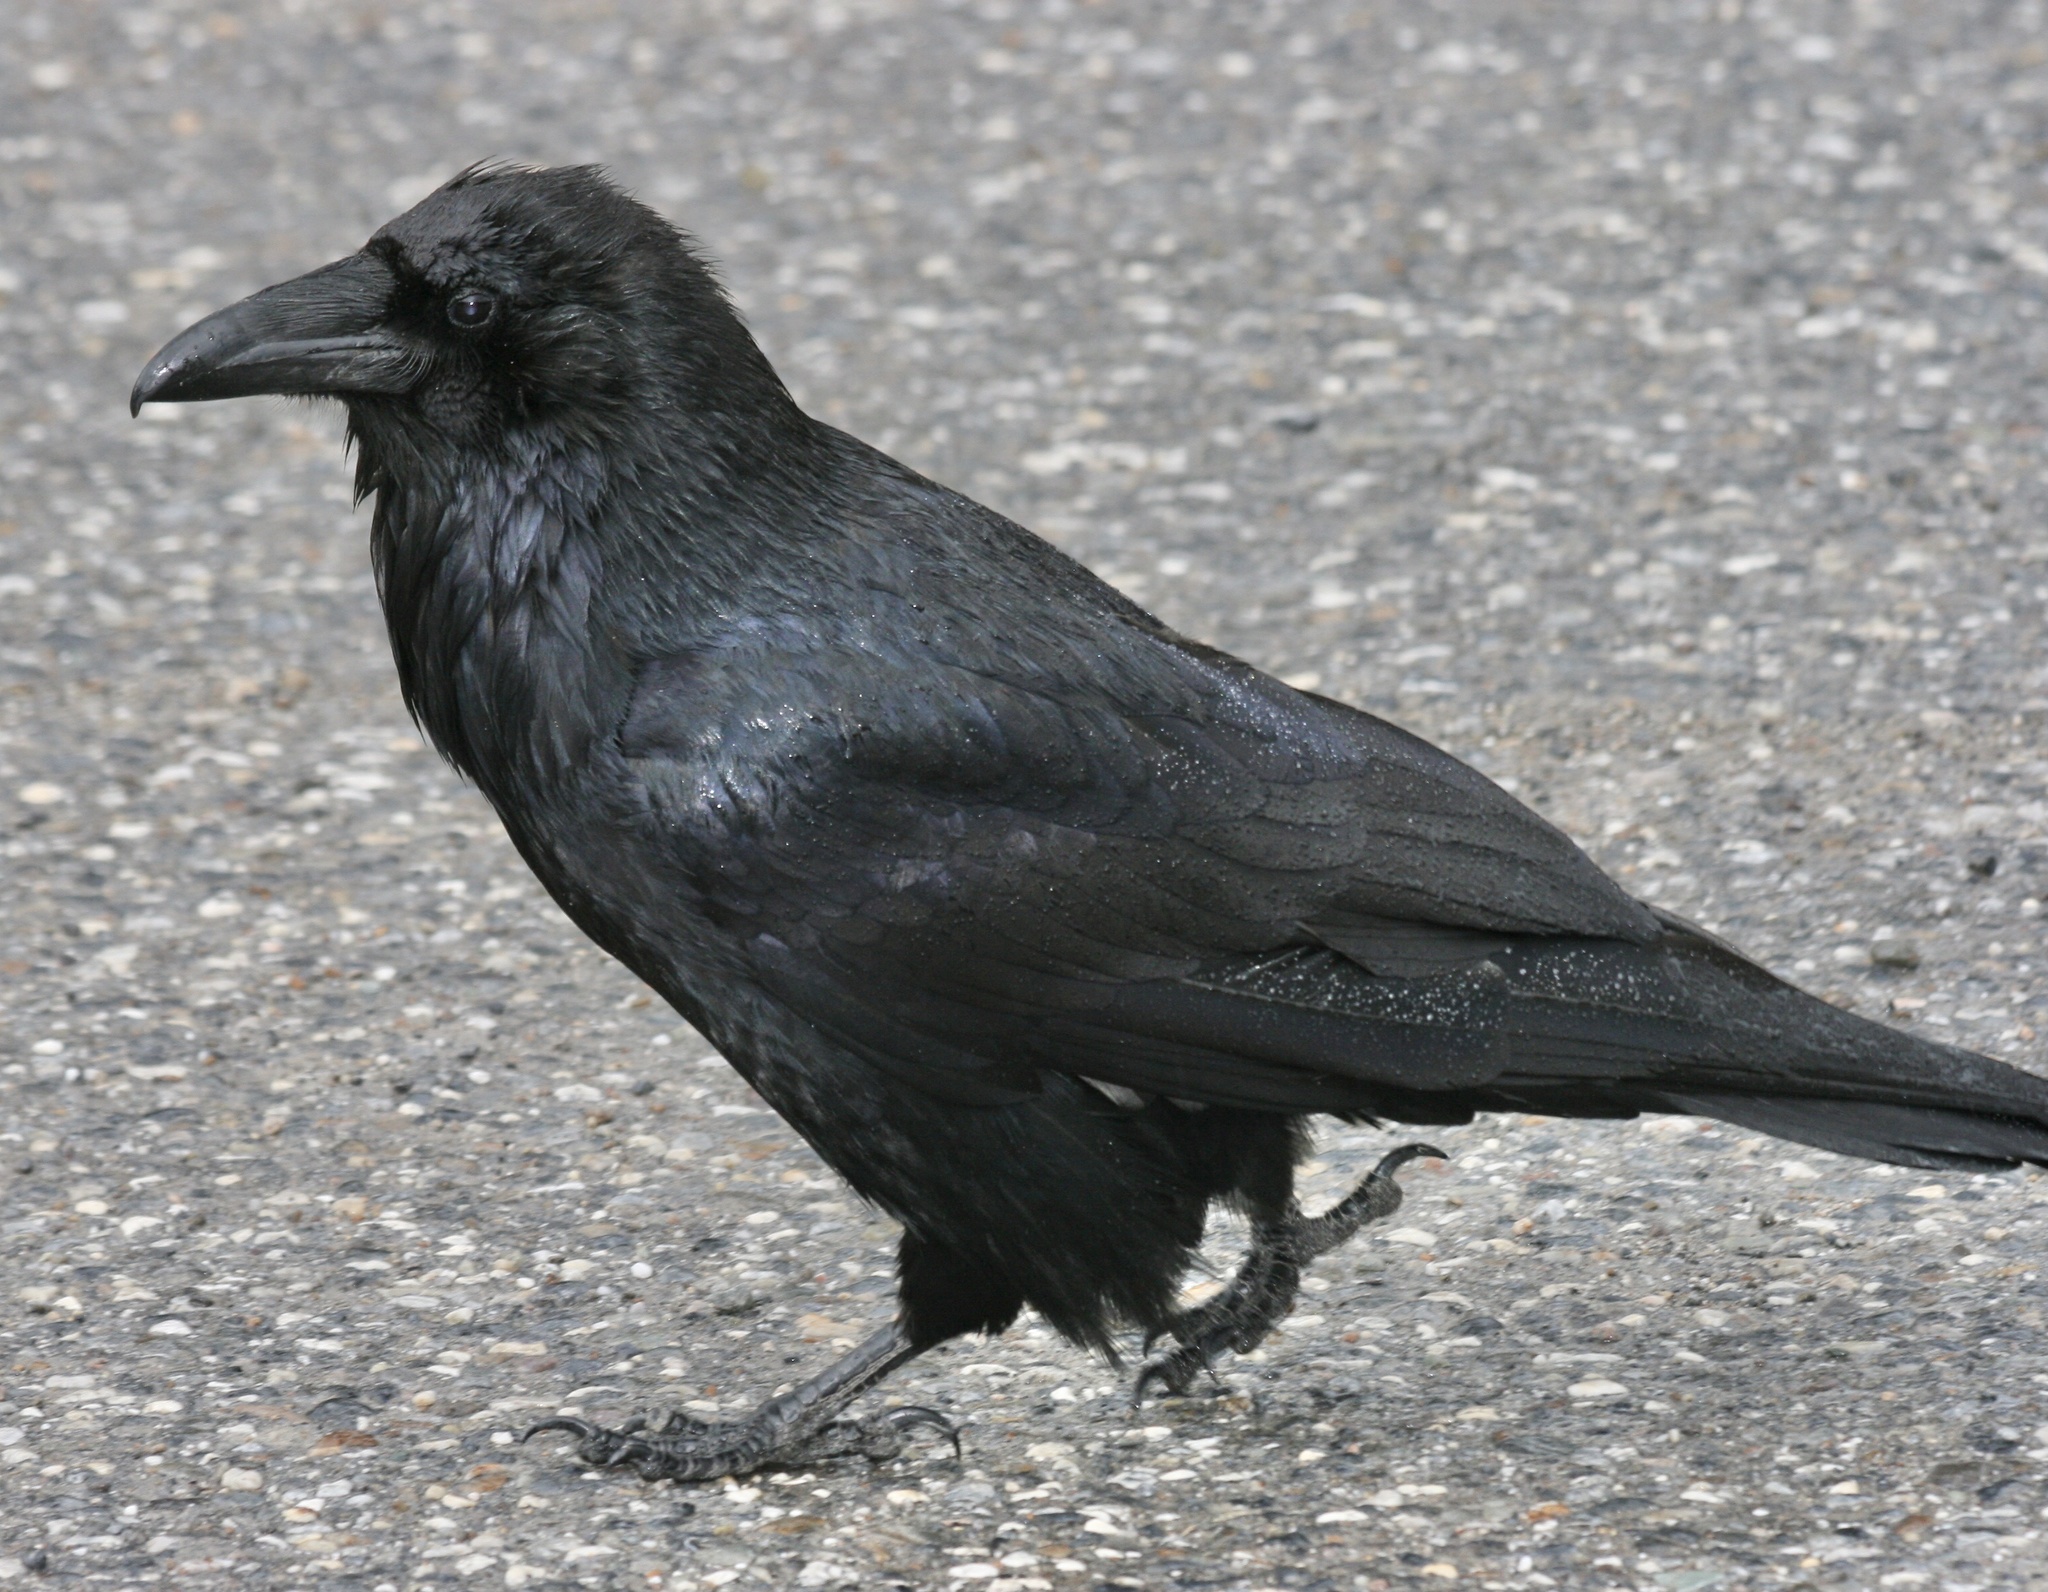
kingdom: Animalia
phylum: Chordata
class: Aves
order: Passeriformes
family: Corvidae
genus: Corvus
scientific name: Corvus corax
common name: Common raven
